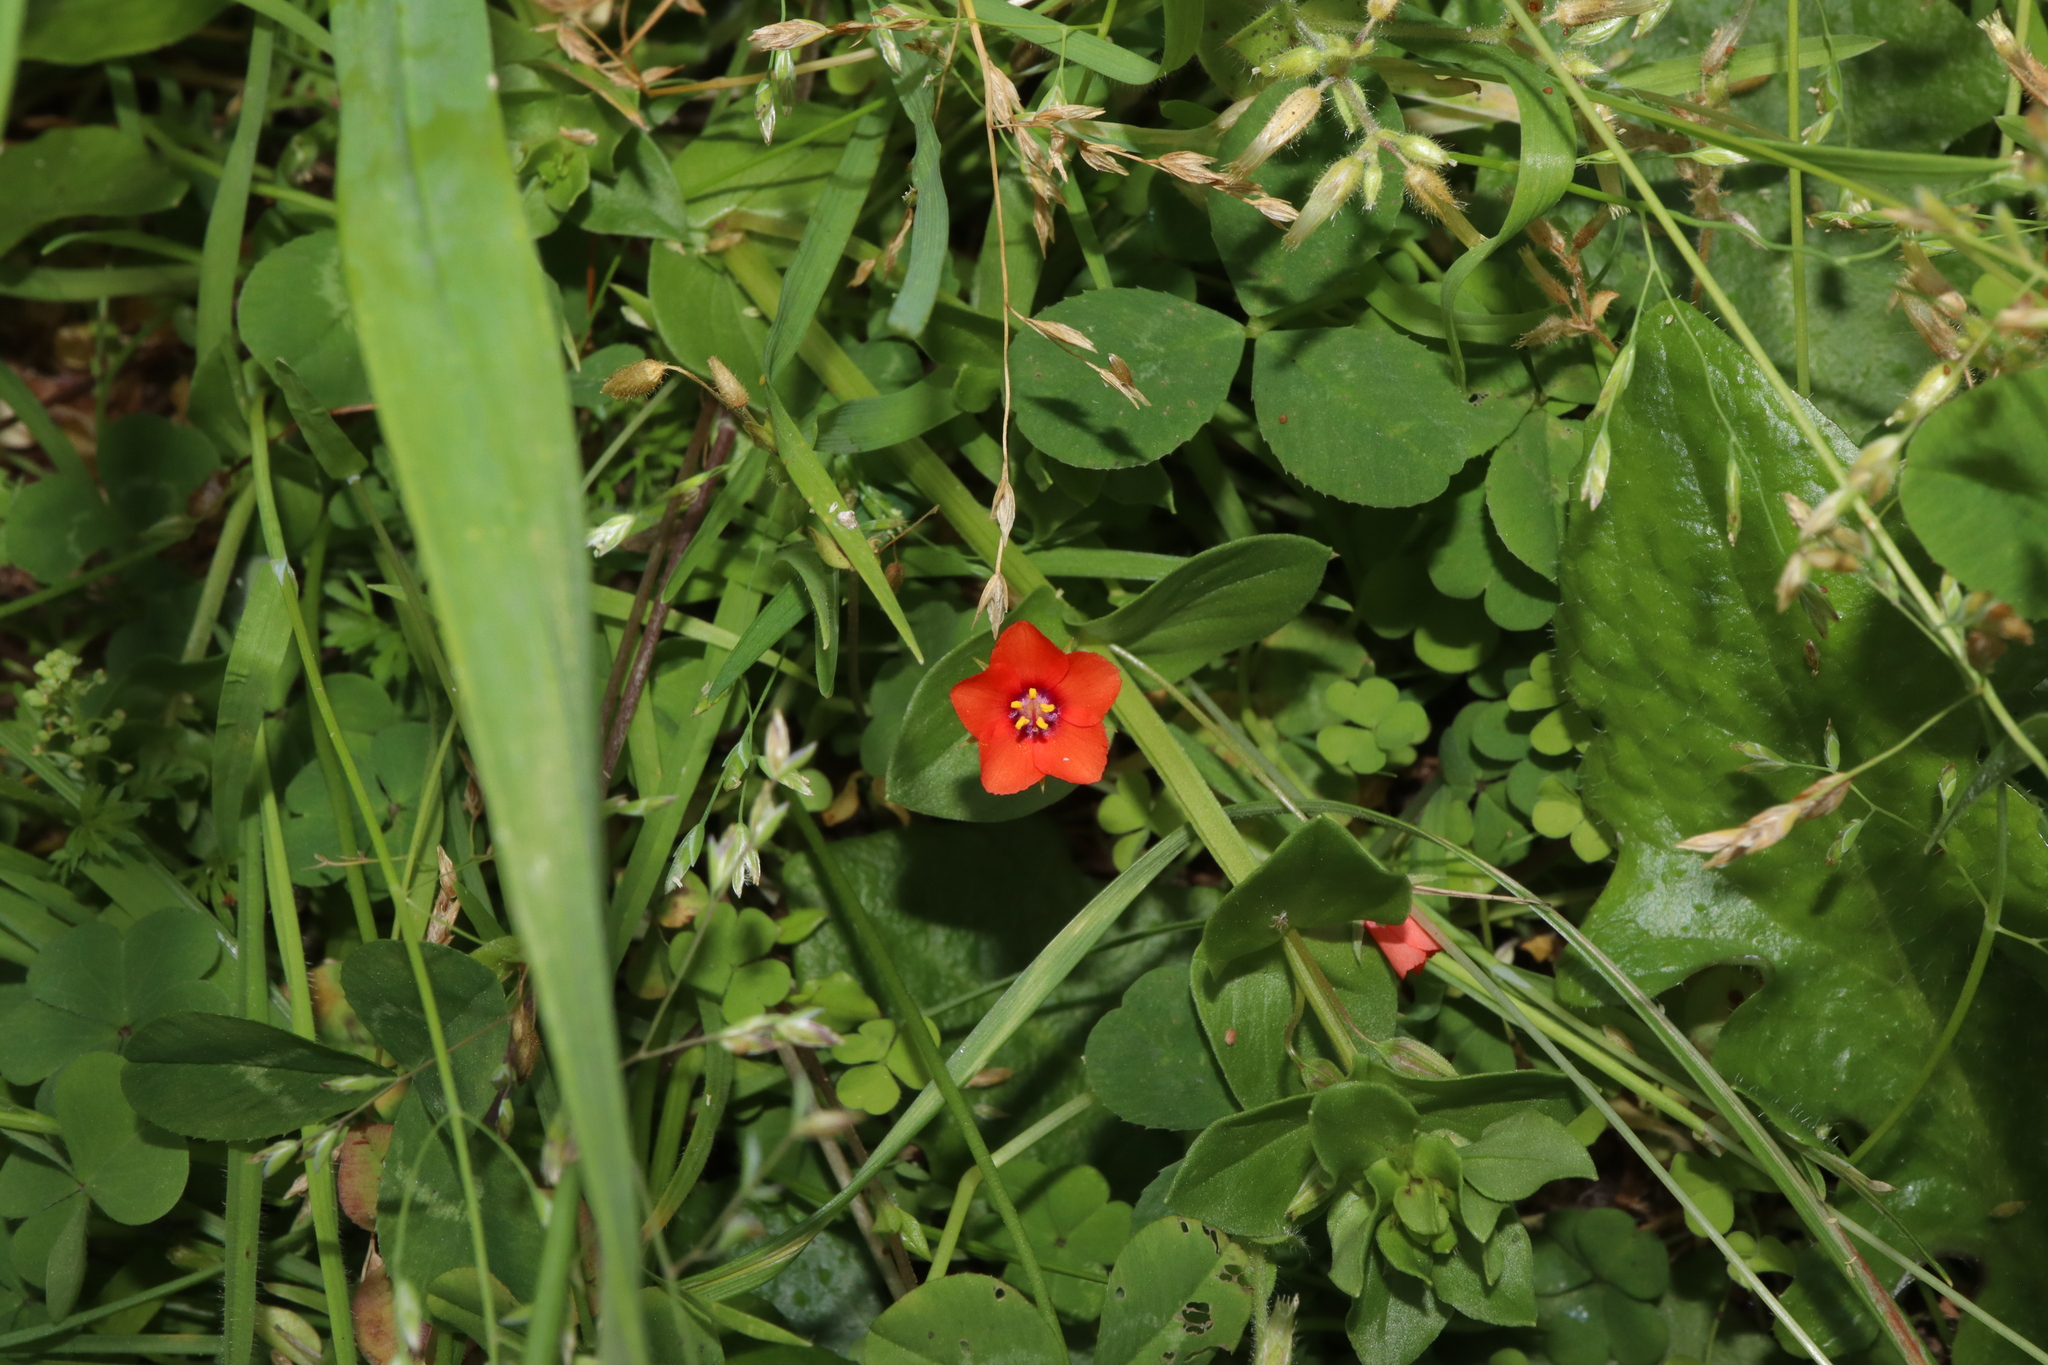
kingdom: Plantae
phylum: Tracheophyta
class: Magnoliopsida
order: Ericales
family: Primulaceae
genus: Lysimachia
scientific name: Lysimachia arvensis
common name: Scarlet pimpernel
